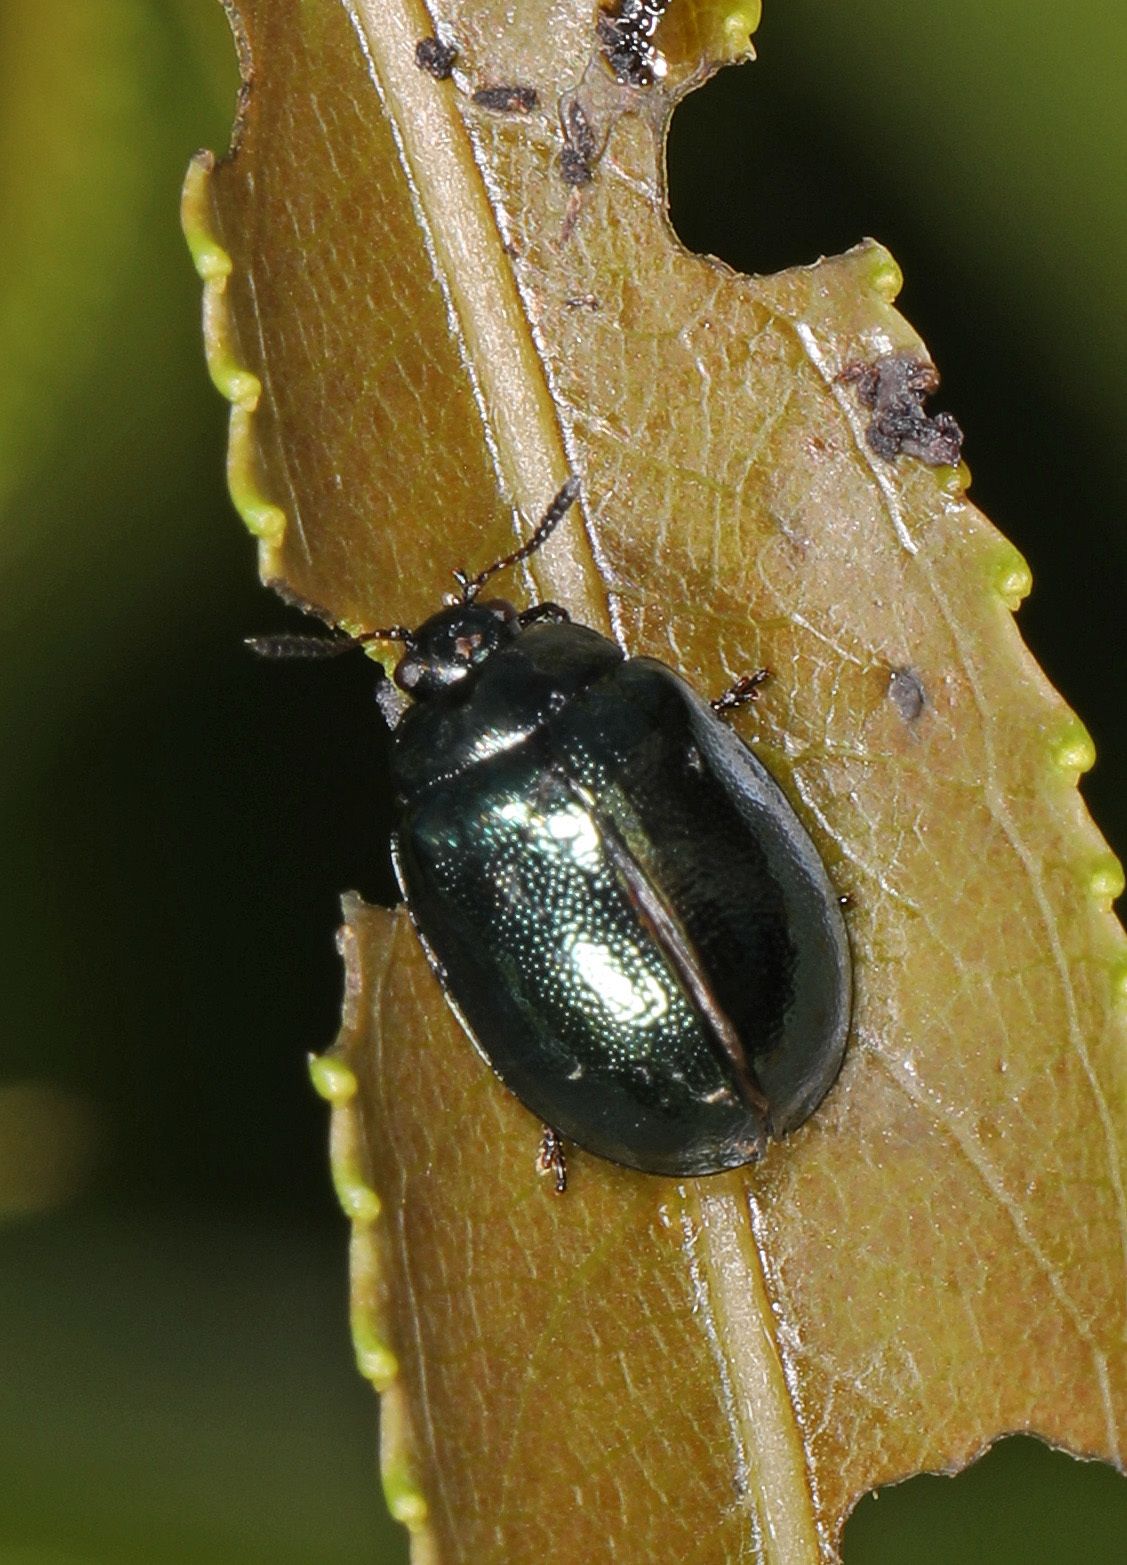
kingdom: Animalia
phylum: Arthropoda
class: Insecta
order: Coleoptera
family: Chrysomelidae
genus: Plagiodera
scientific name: Plagiodera versicolora
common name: Imported willow leaf beetle
